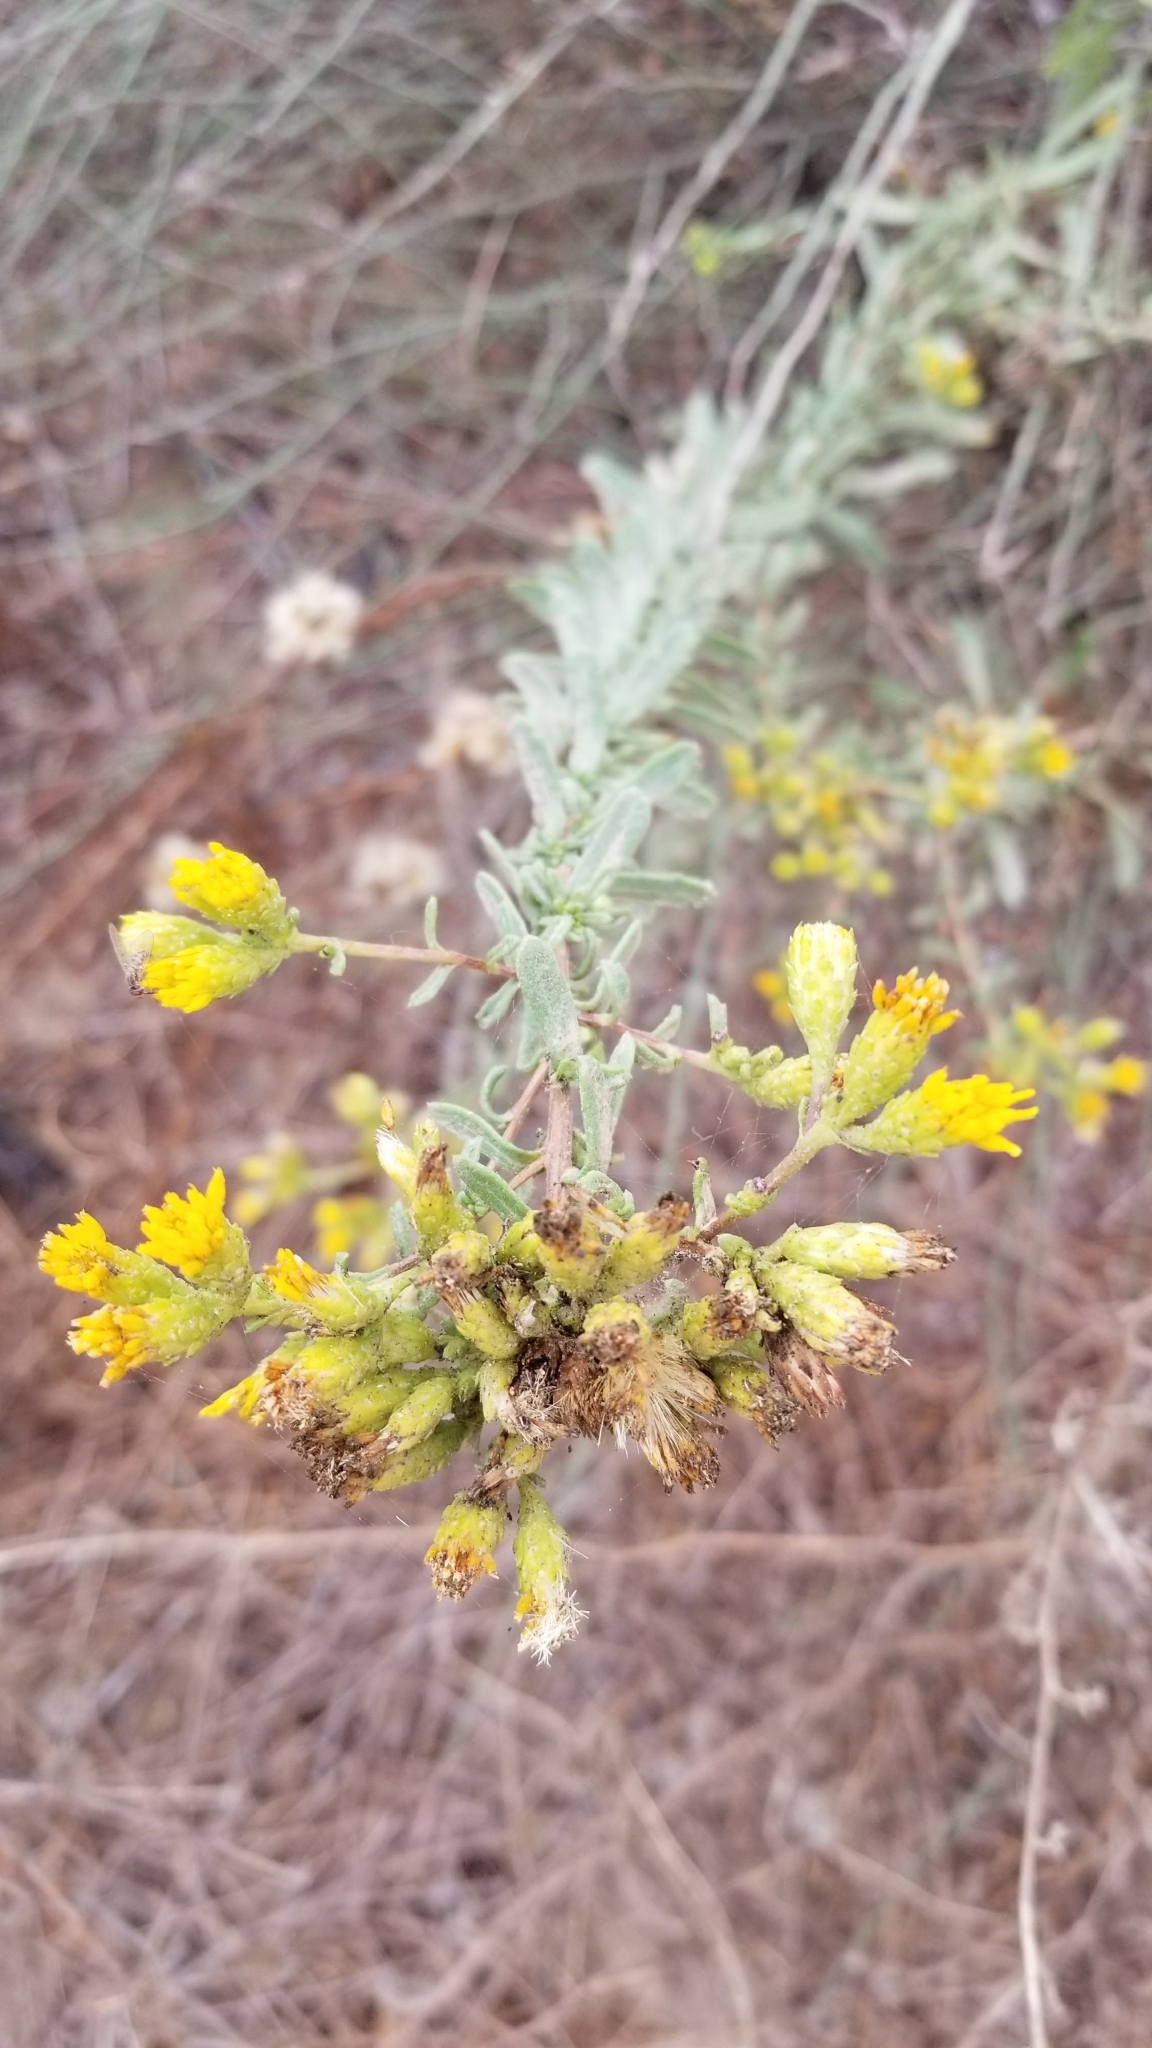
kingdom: Plantae
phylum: Tracheophyta
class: Magnoliopsida
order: Asterales
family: Asteraceae
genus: Isocoma
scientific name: Isocoma menziesii
